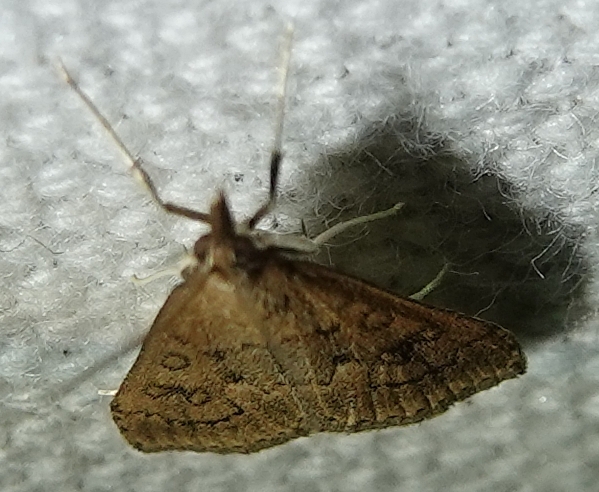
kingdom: Animalia
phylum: Arthropoda
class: Insecta
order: Lepidoptera
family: Crambidae
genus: Udea
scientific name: Udea rubigalis
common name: Celery leaftier moth
